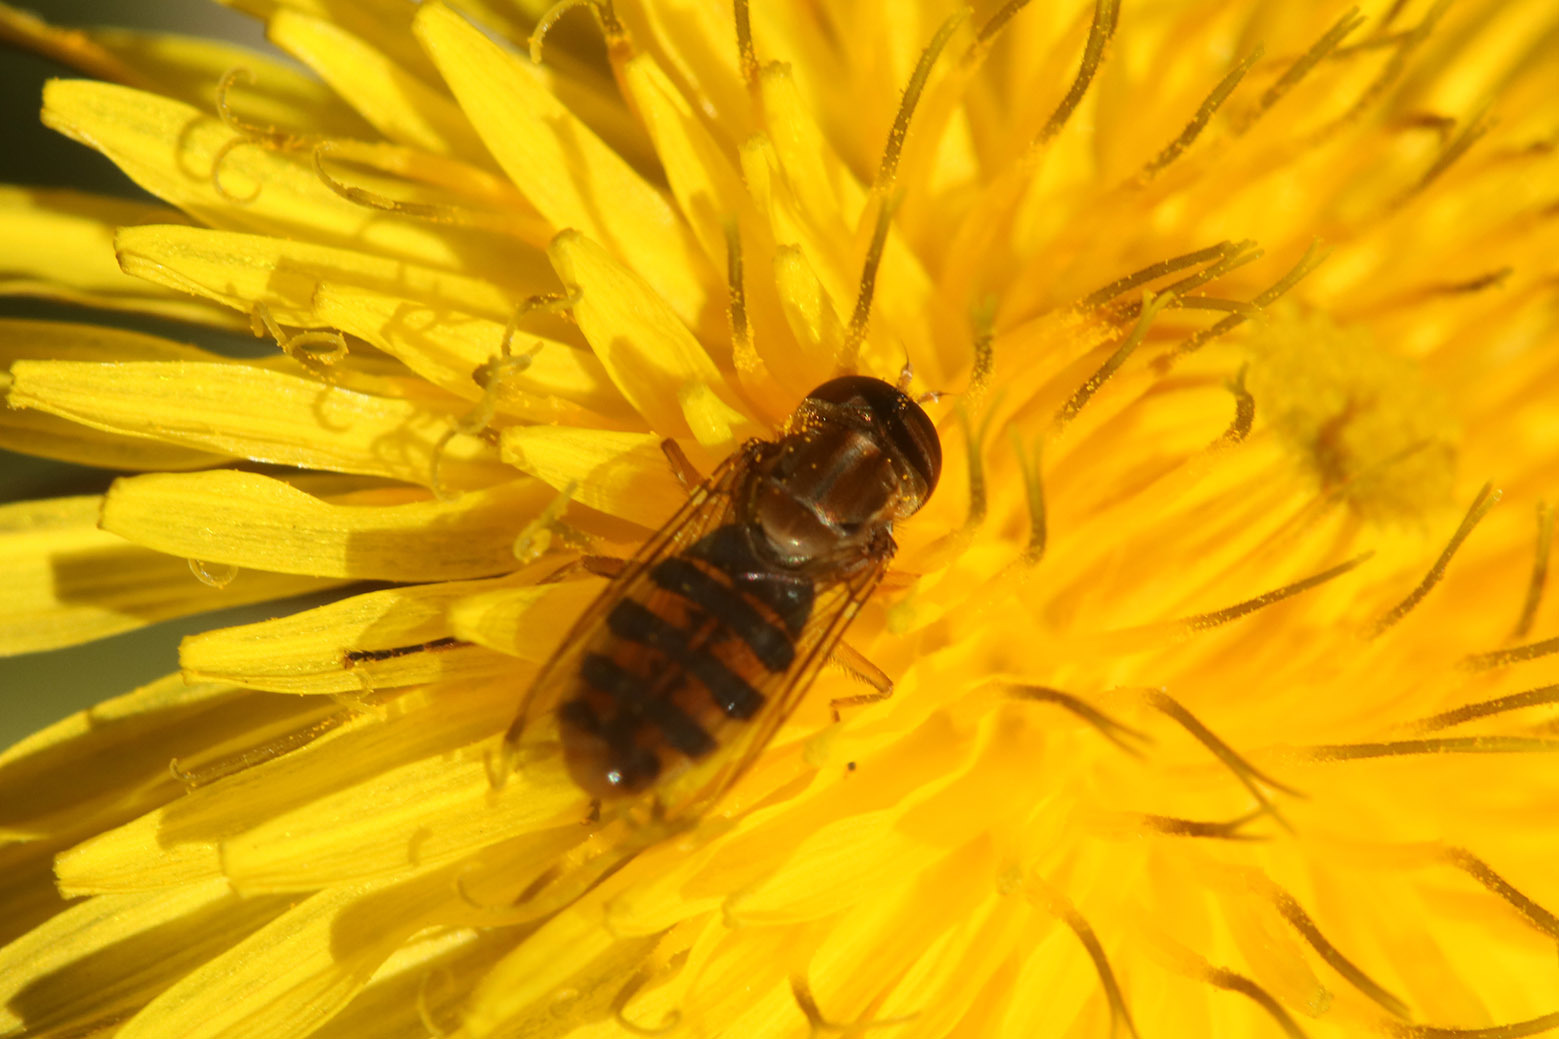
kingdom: Animalia
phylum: Arthropoda
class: Insecta
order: Diptera
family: Syrphidae
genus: Toxomerus
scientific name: Toxomerus
